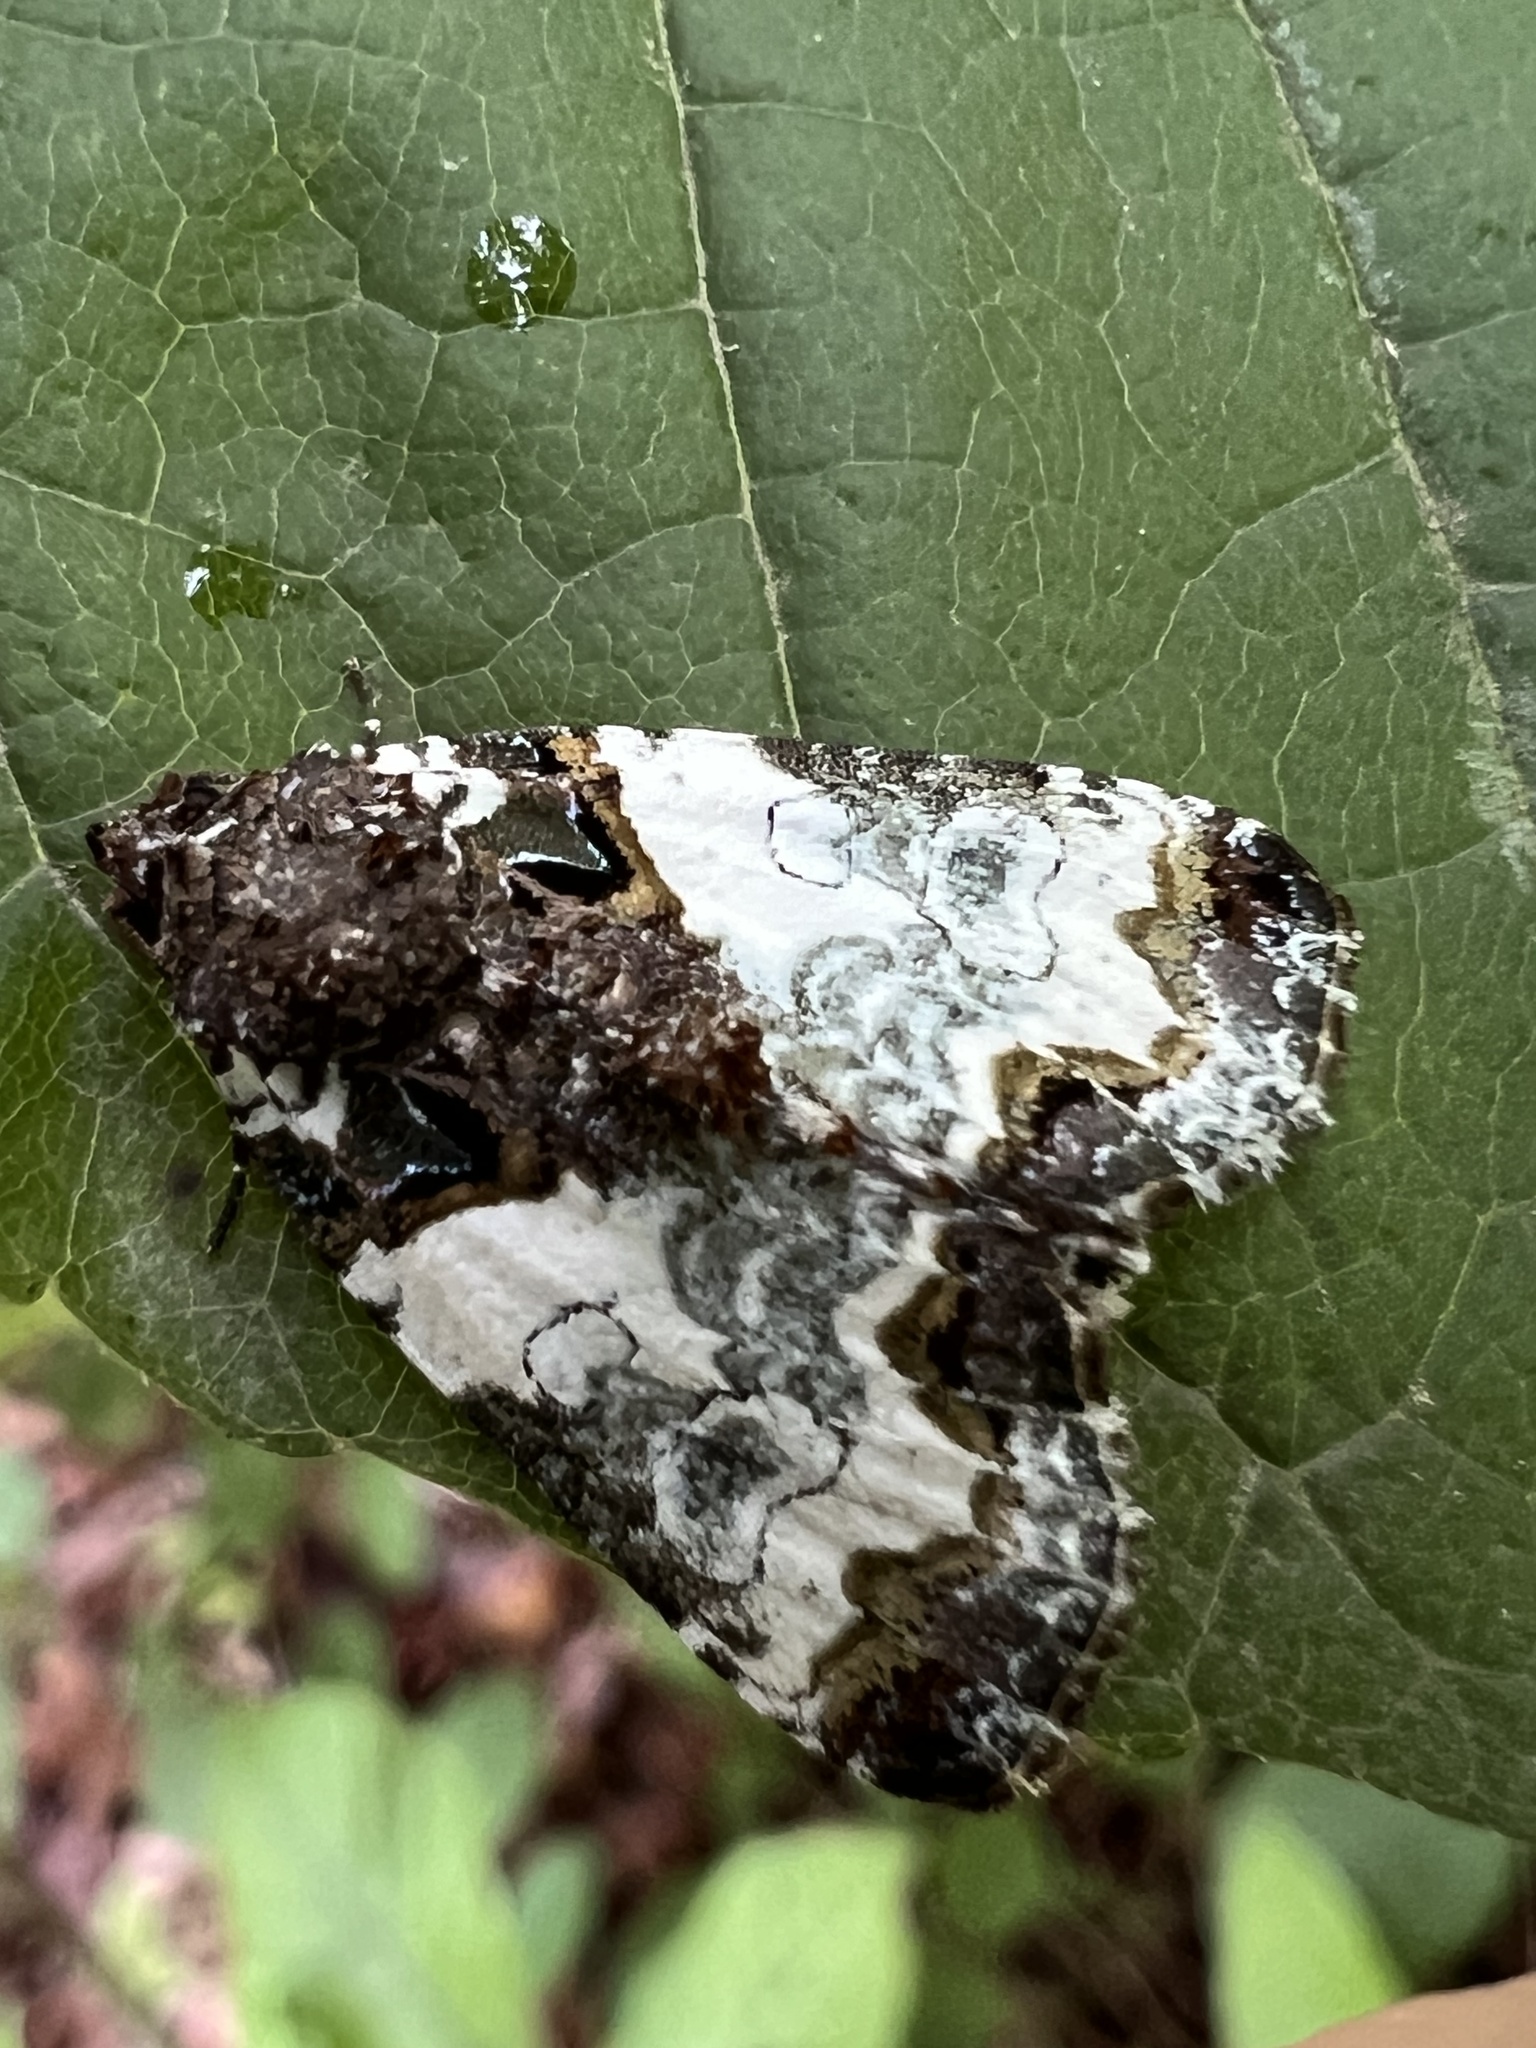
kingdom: Animalia
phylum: Arthropoda
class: Insecta
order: Lepidoptera
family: Noctuidae
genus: Cerma
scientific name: Cerma cerintha
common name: Tufted bird-dropping moth
